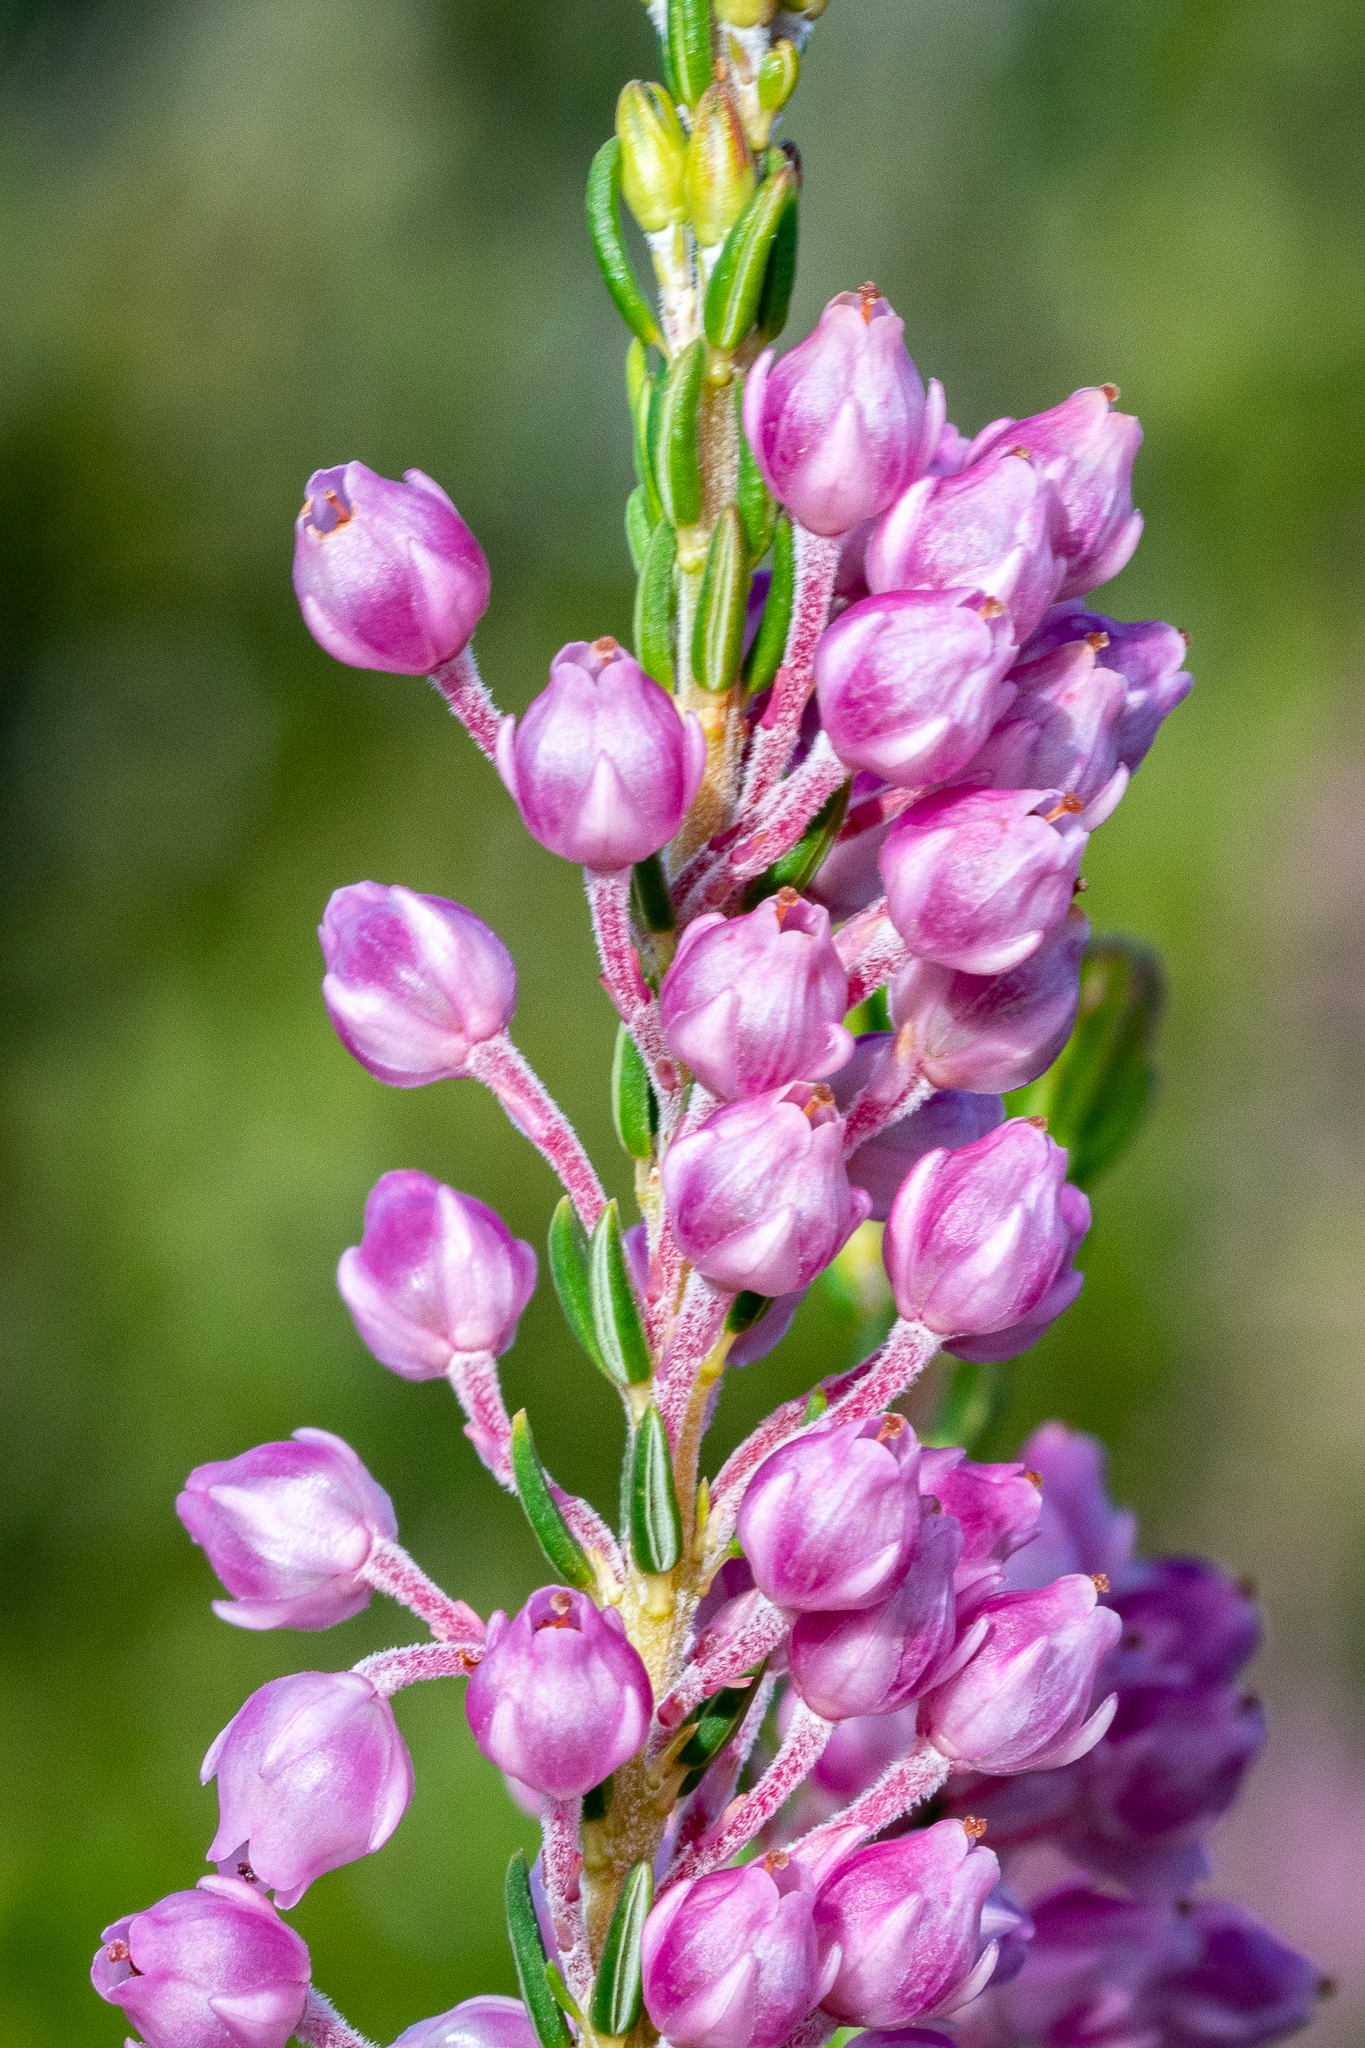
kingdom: Plantae
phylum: Tracheophyta
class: Magnoliopsida
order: Ericales
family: Ericaceae
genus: Erica
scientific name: Erica irregularis
